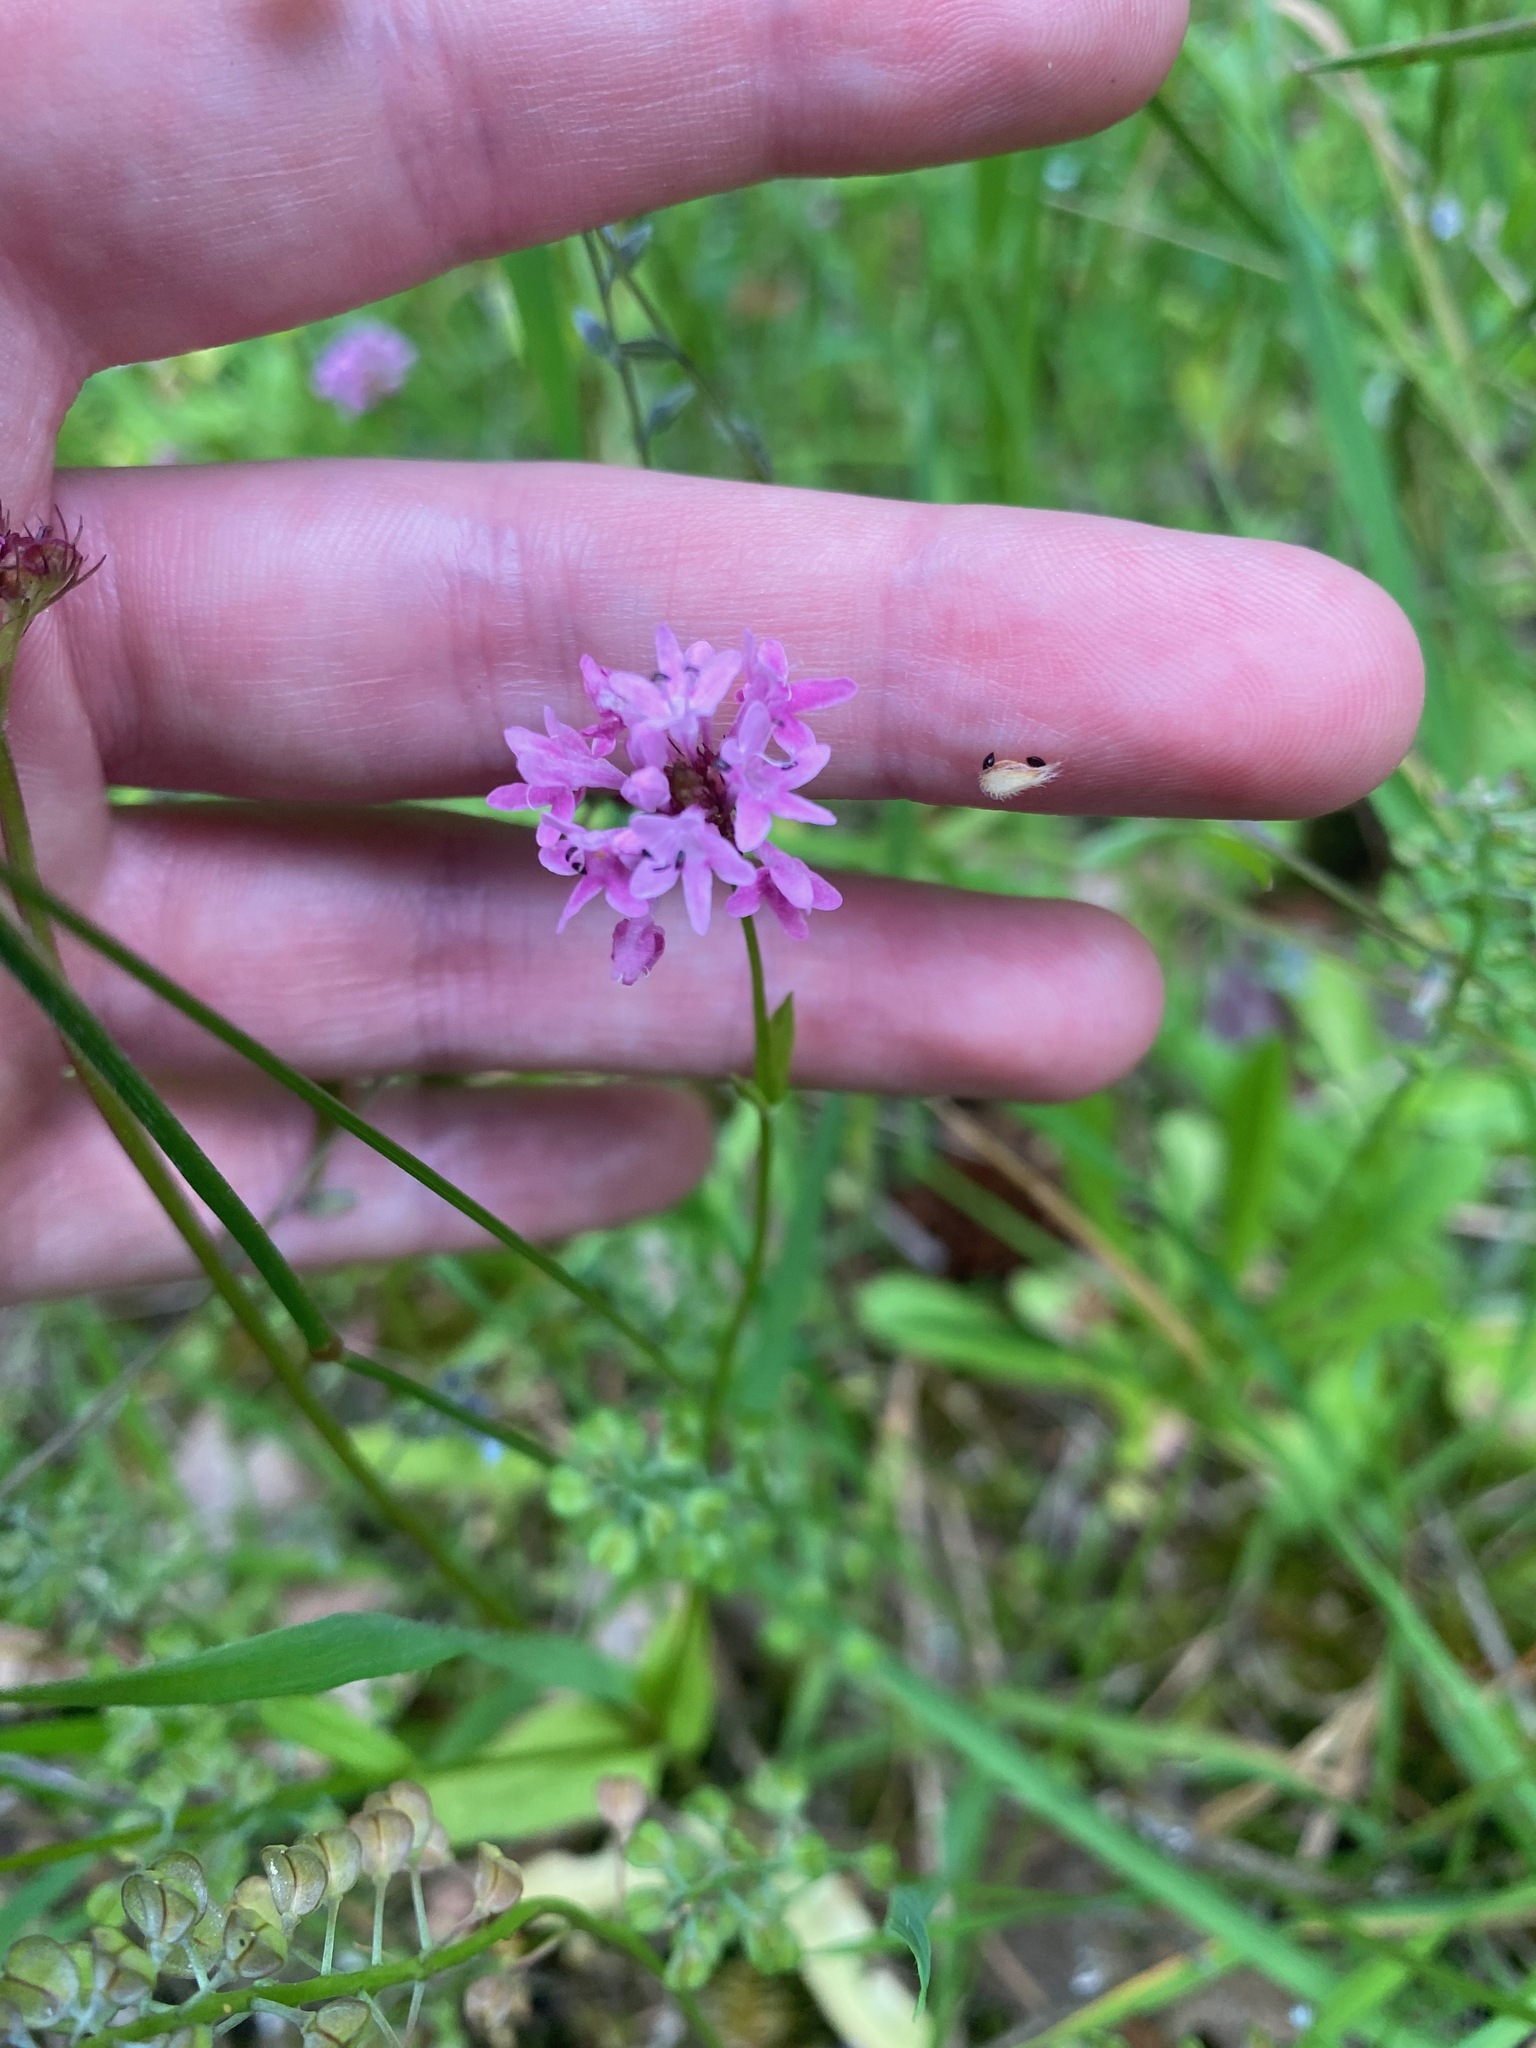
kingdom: Plantae
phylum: Tracheophyta
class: Magnoliopsida
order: Dipsacales
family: Caprifoliaceae
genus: Plectritis
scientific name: Plectritis congesta
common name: Pink plectritis
